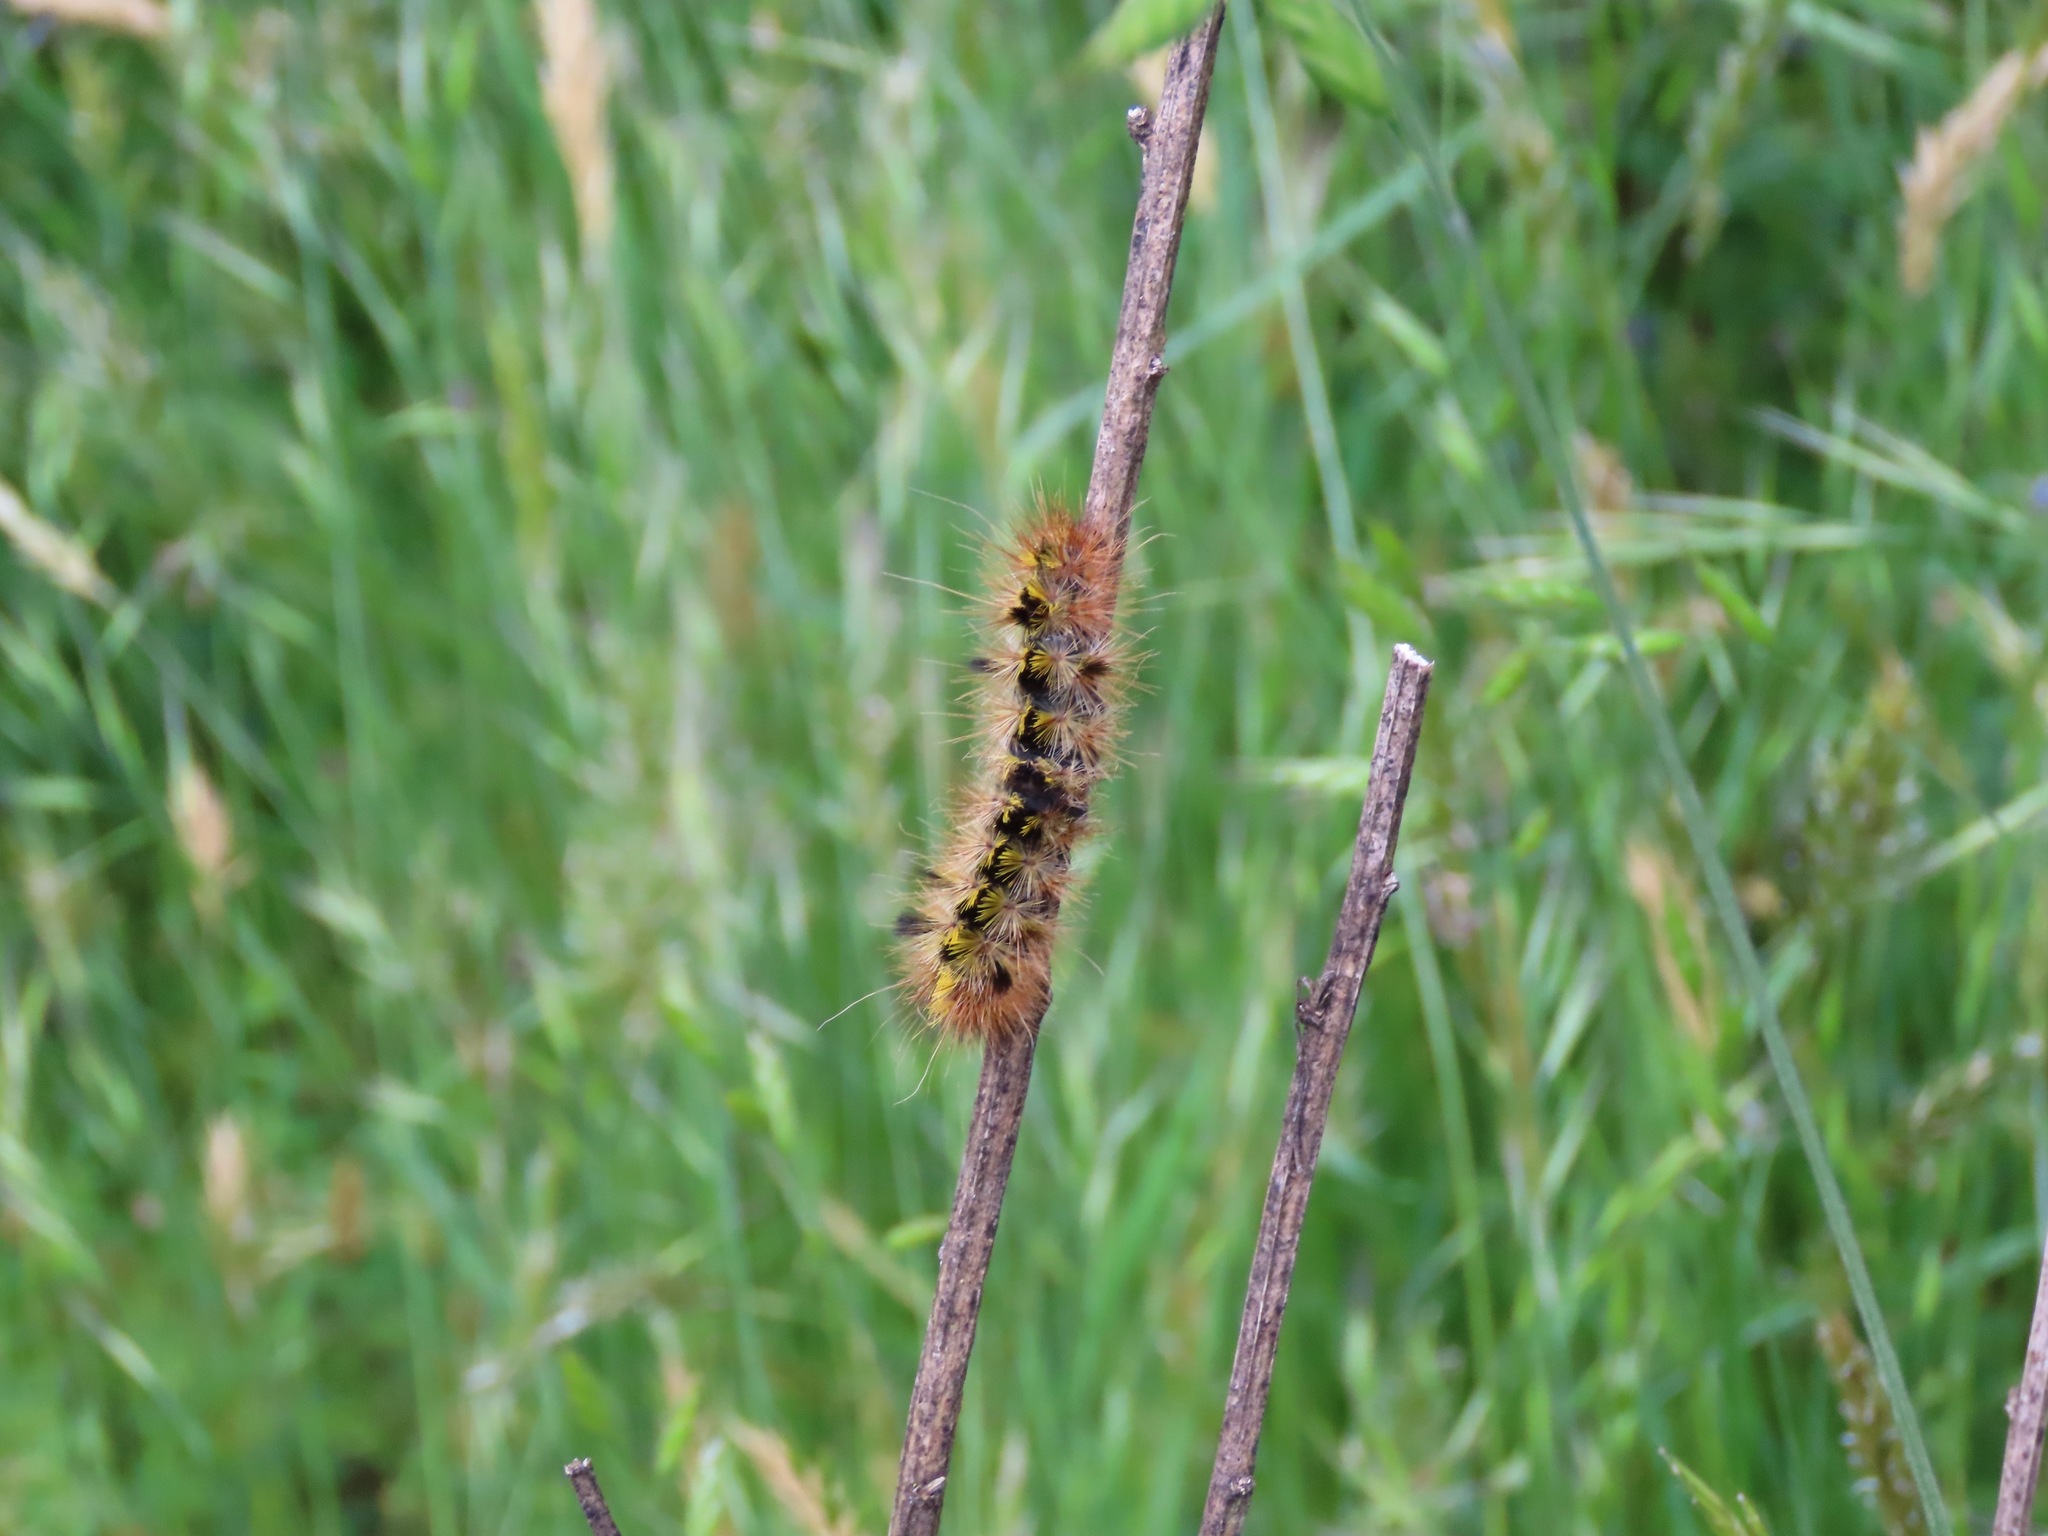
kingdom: Animalia
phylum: Arthropoda
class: Insecta
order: Lepidoptera
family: Erebidae
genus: Lophocampa
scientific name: Lophocampa argentata
